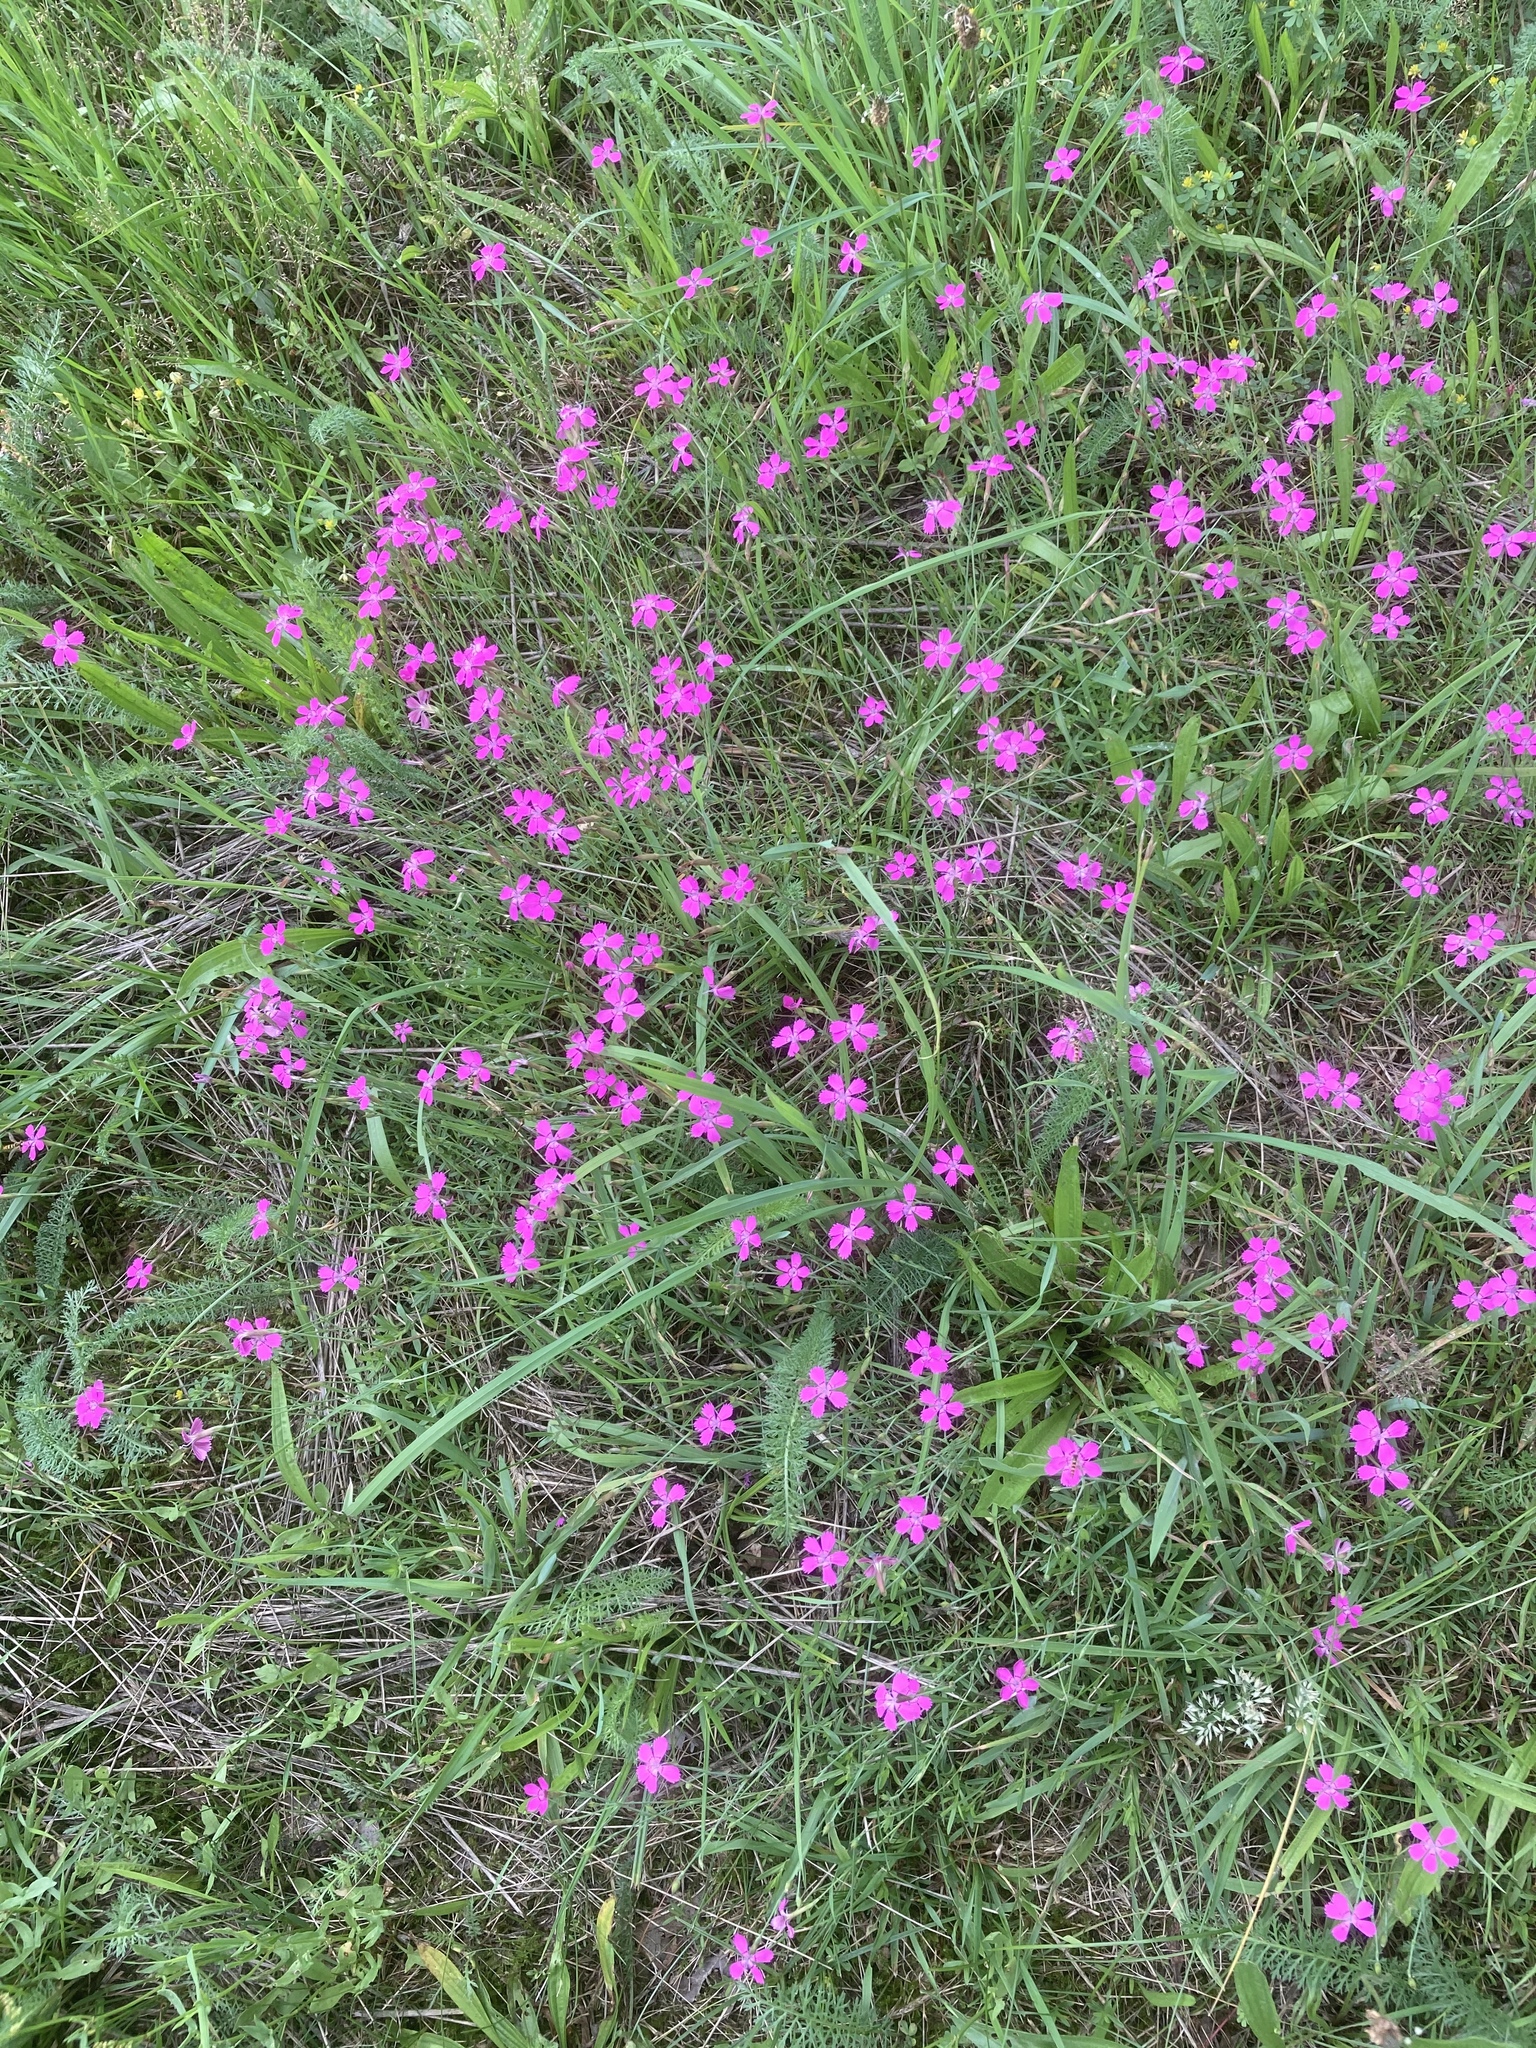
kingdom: Plantae
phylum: Tracheophyta
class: Magnoliopsida
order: Caryophyllales
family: Caryophyllaceae
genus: Dianthus
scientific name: Dianthus deltoides
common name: Maiden pink
